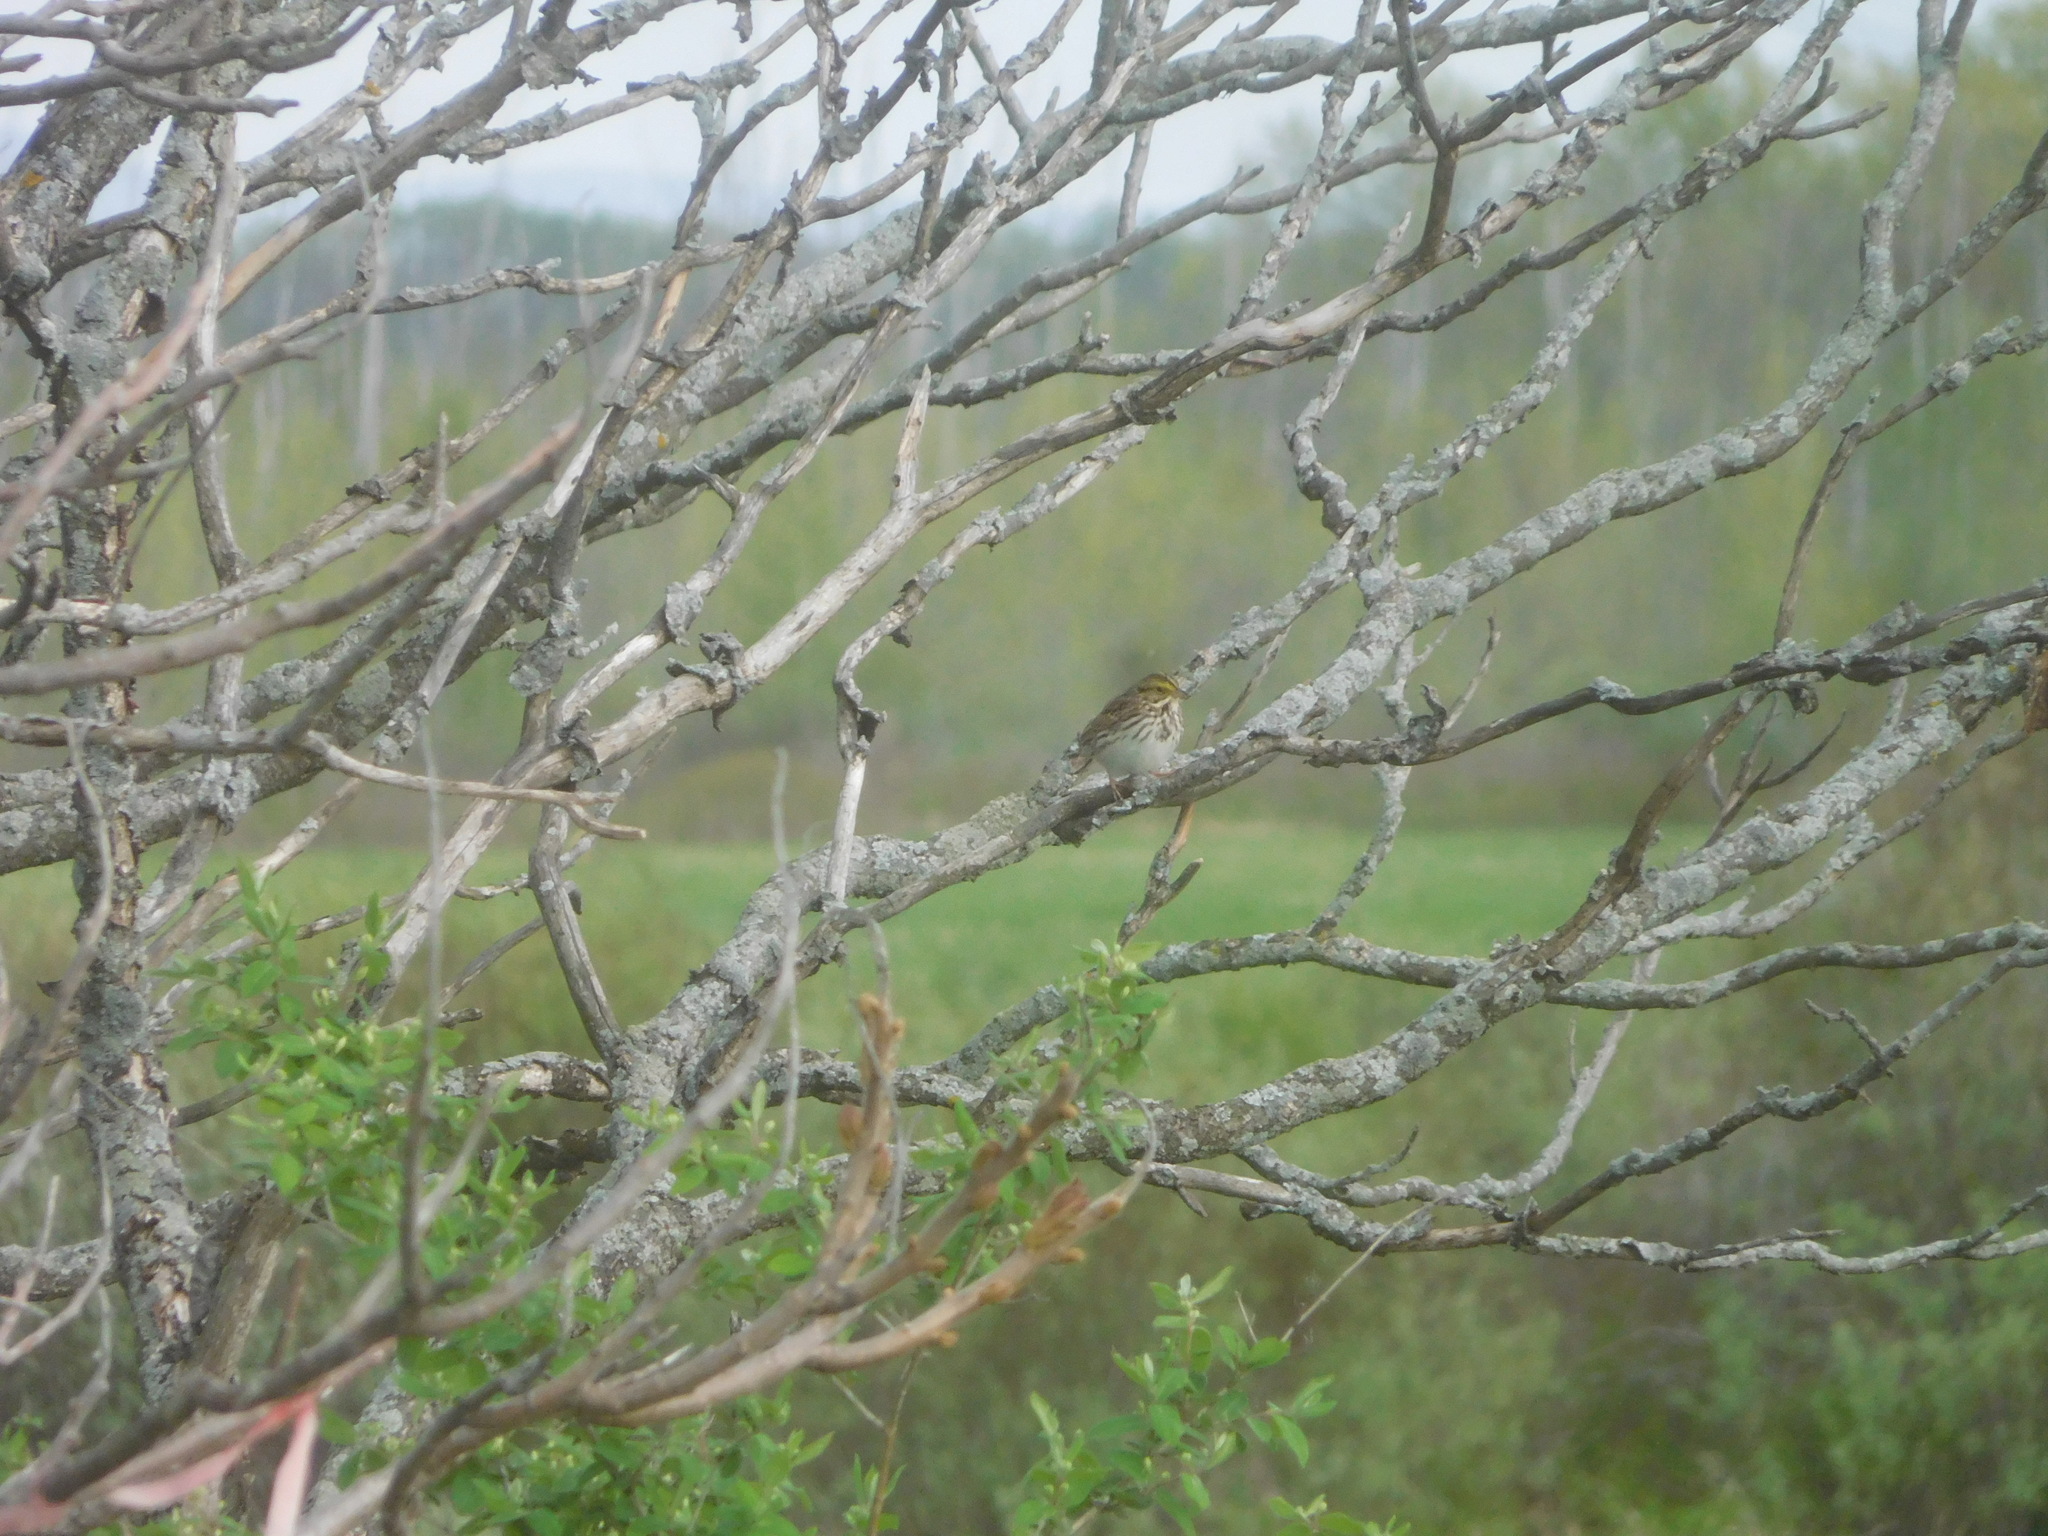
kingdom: Animalia
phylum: Chordata
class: Aves
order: Passeriformes
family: Passerellidae
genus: Passerculus
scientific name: Passerculus sandwichensis
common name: Savannah sparrow
